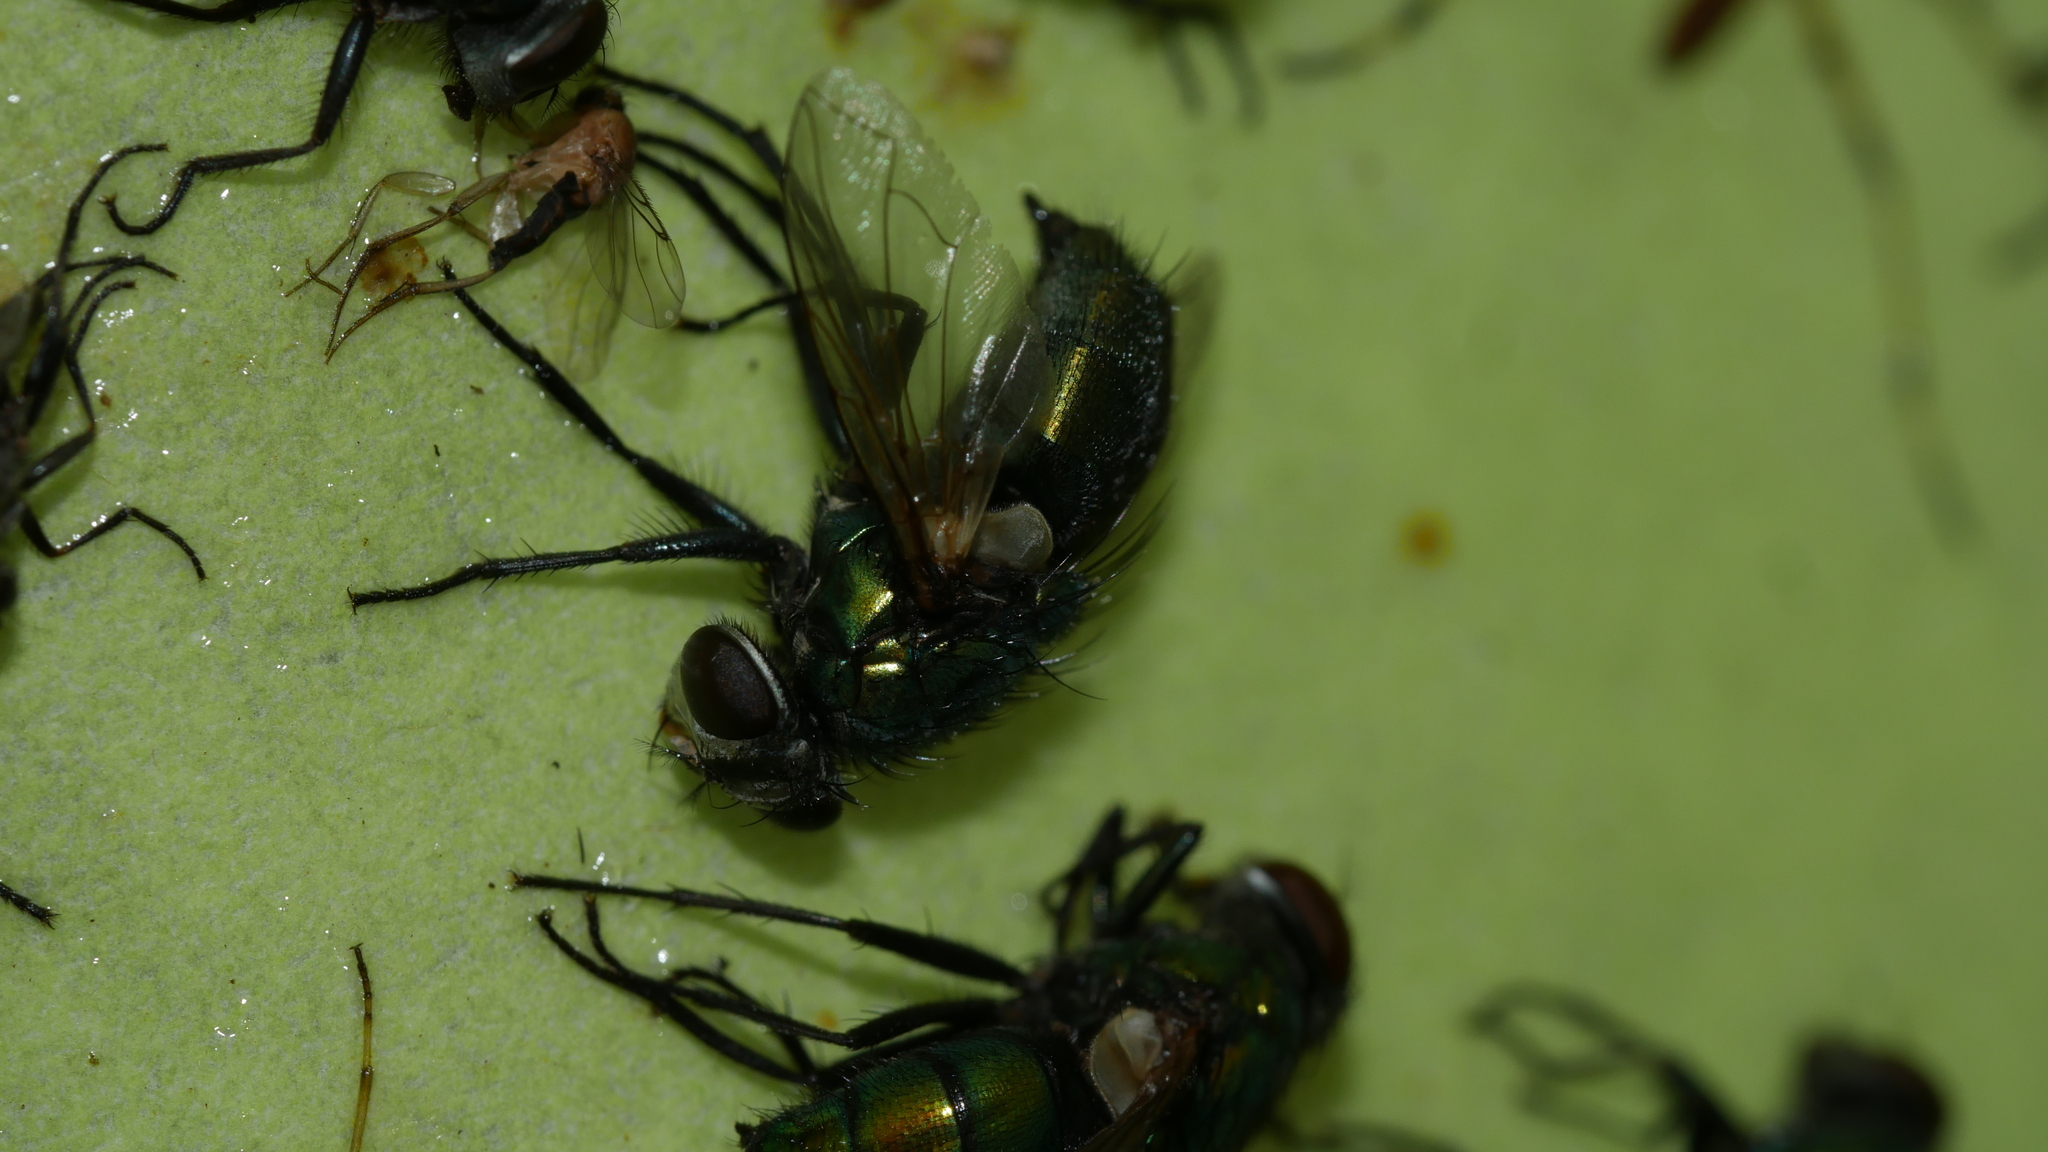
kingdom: Animalia
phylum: Arthropoda
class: Insecta
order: Diptera
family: Calliphoridae
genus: Lucilia
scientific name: Lucilia caeruleiviridis
